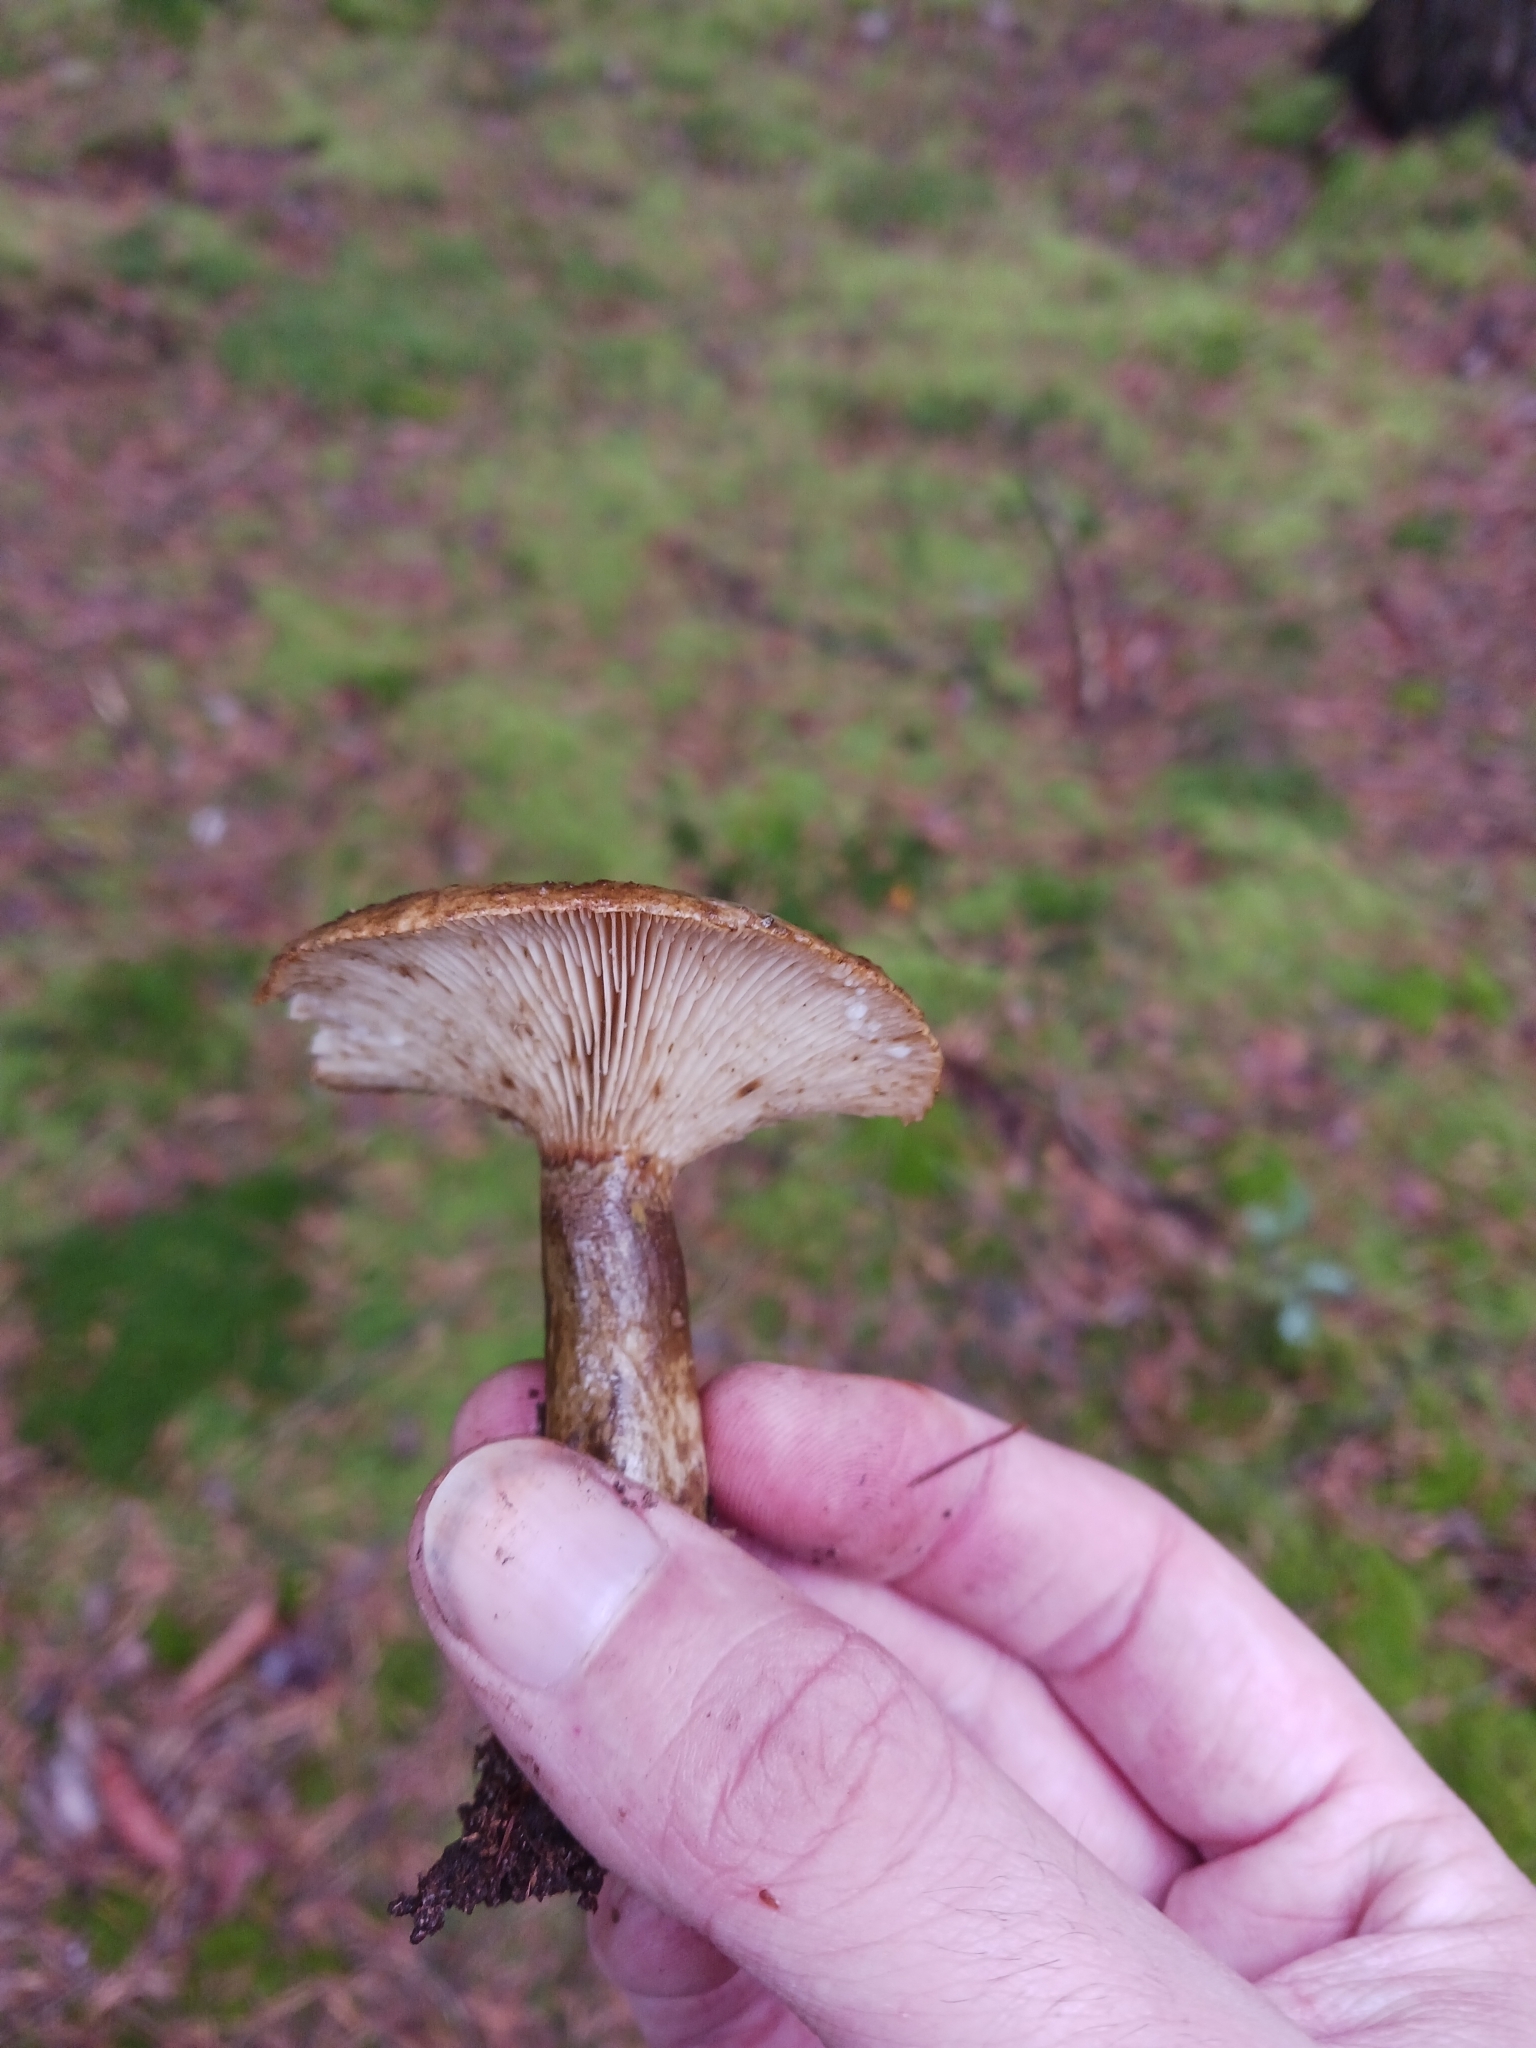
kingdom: Fungi
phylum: Basidiomycota
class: Agaricomycetes
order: Russulales
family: Russulaceae
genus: Lactarius
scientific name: Lactarius turpis
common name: Ugly milk-cap
